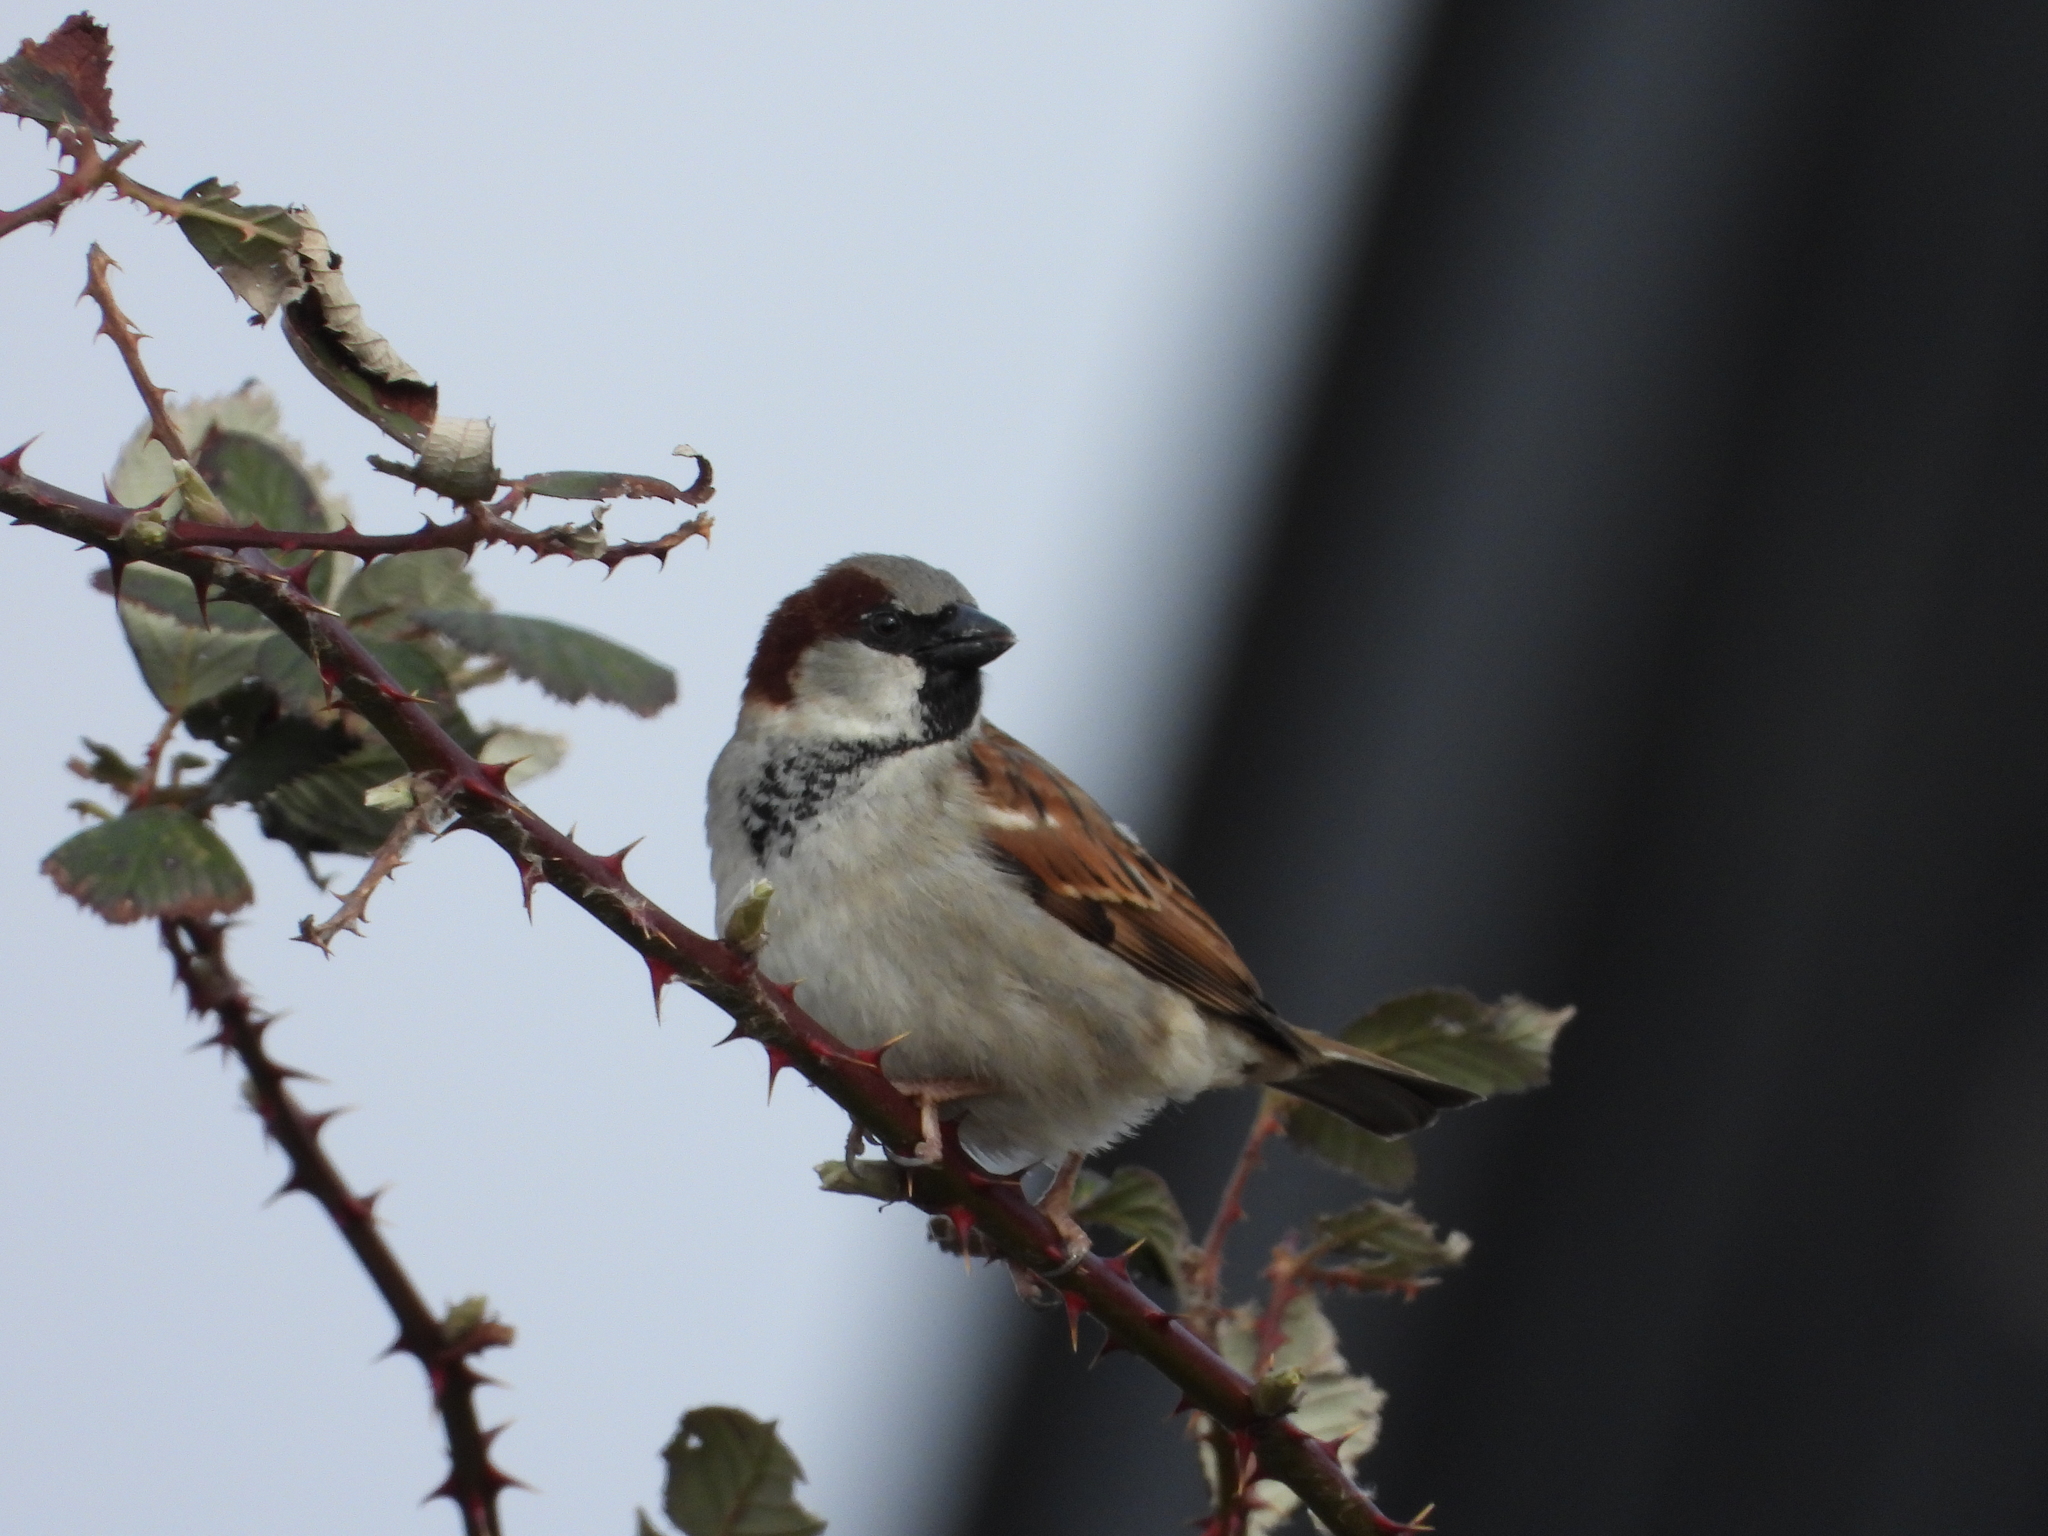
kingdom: Animalia
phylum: Chordata
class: Aves
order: Passeriformes
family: Passeridae
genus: Passer
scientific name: Passer domesticus
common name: House sparrow
